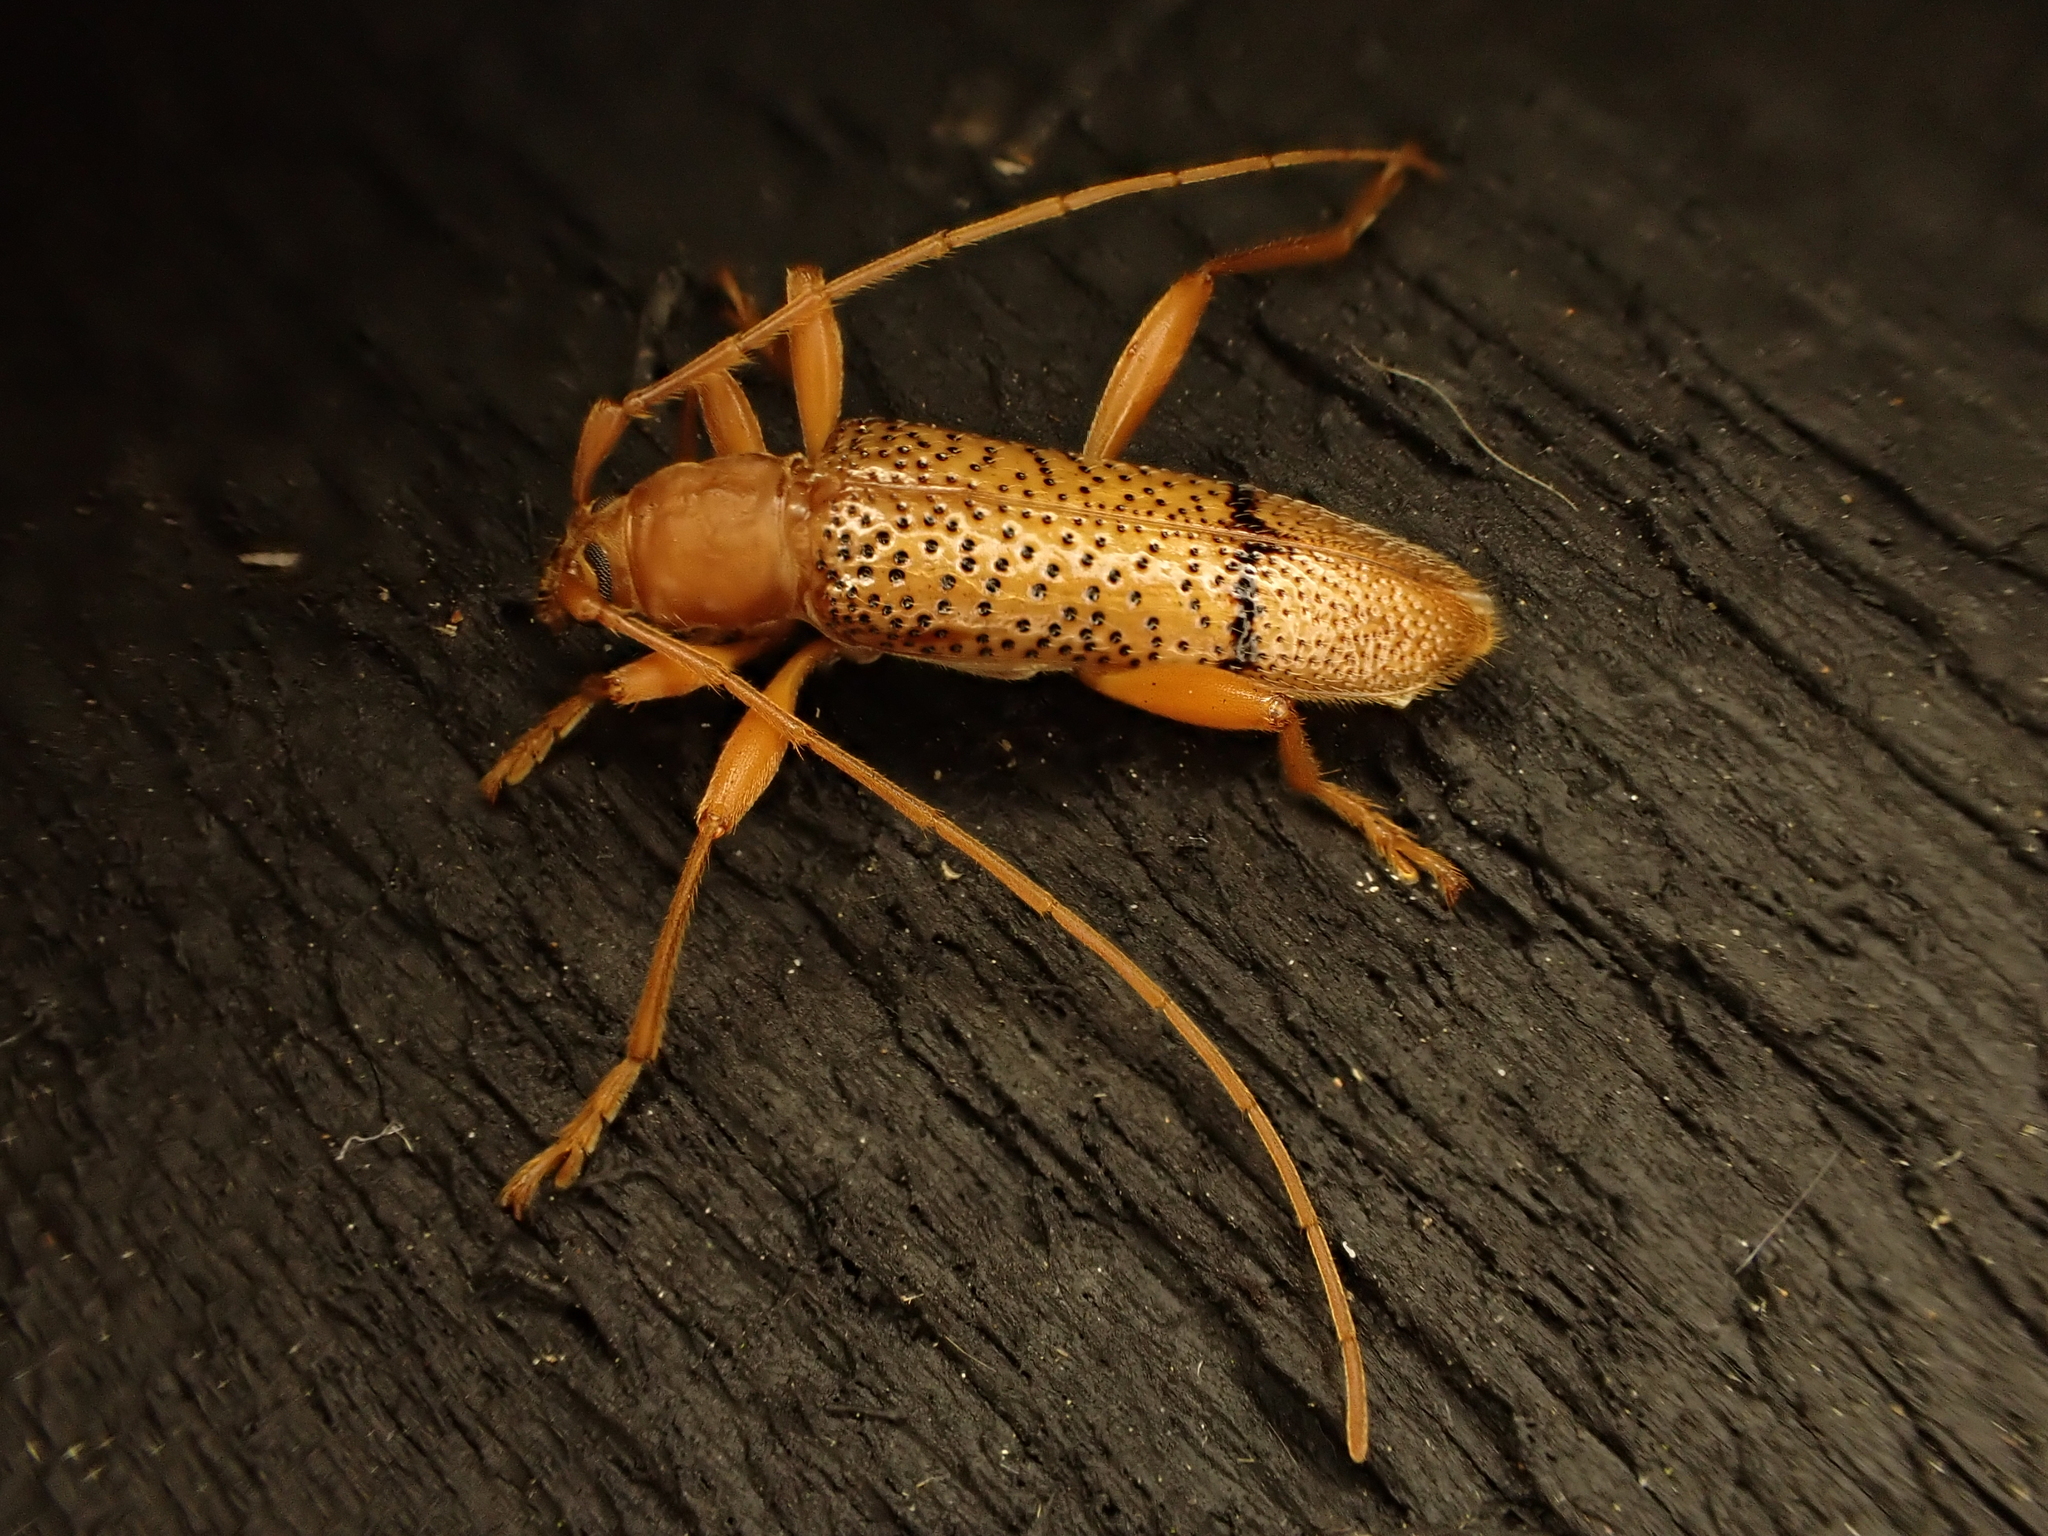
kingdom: Animalia
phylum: Arthropoda
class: Insecta
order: Coleoptera
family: Cerambycidae
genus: Xuthodes
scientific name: Xuthodes punctipennis
